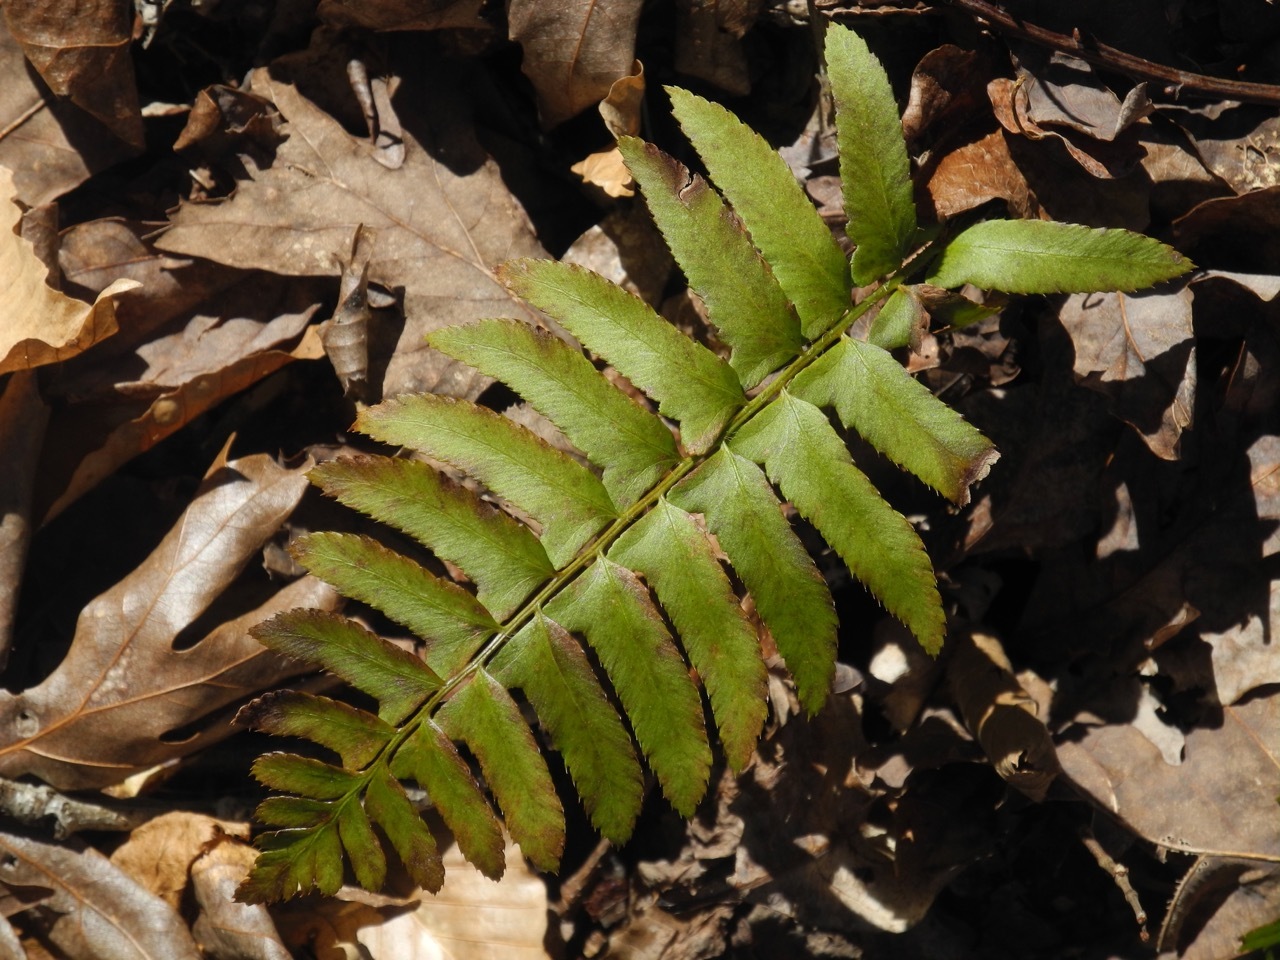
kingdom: Plantae
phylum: Tracheophyta
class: Polypodiopsida
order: Polypodiales
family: Dryopteridaceae
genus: Polystichum
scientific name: Polystichum acrostichoides
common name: Christmas fern
